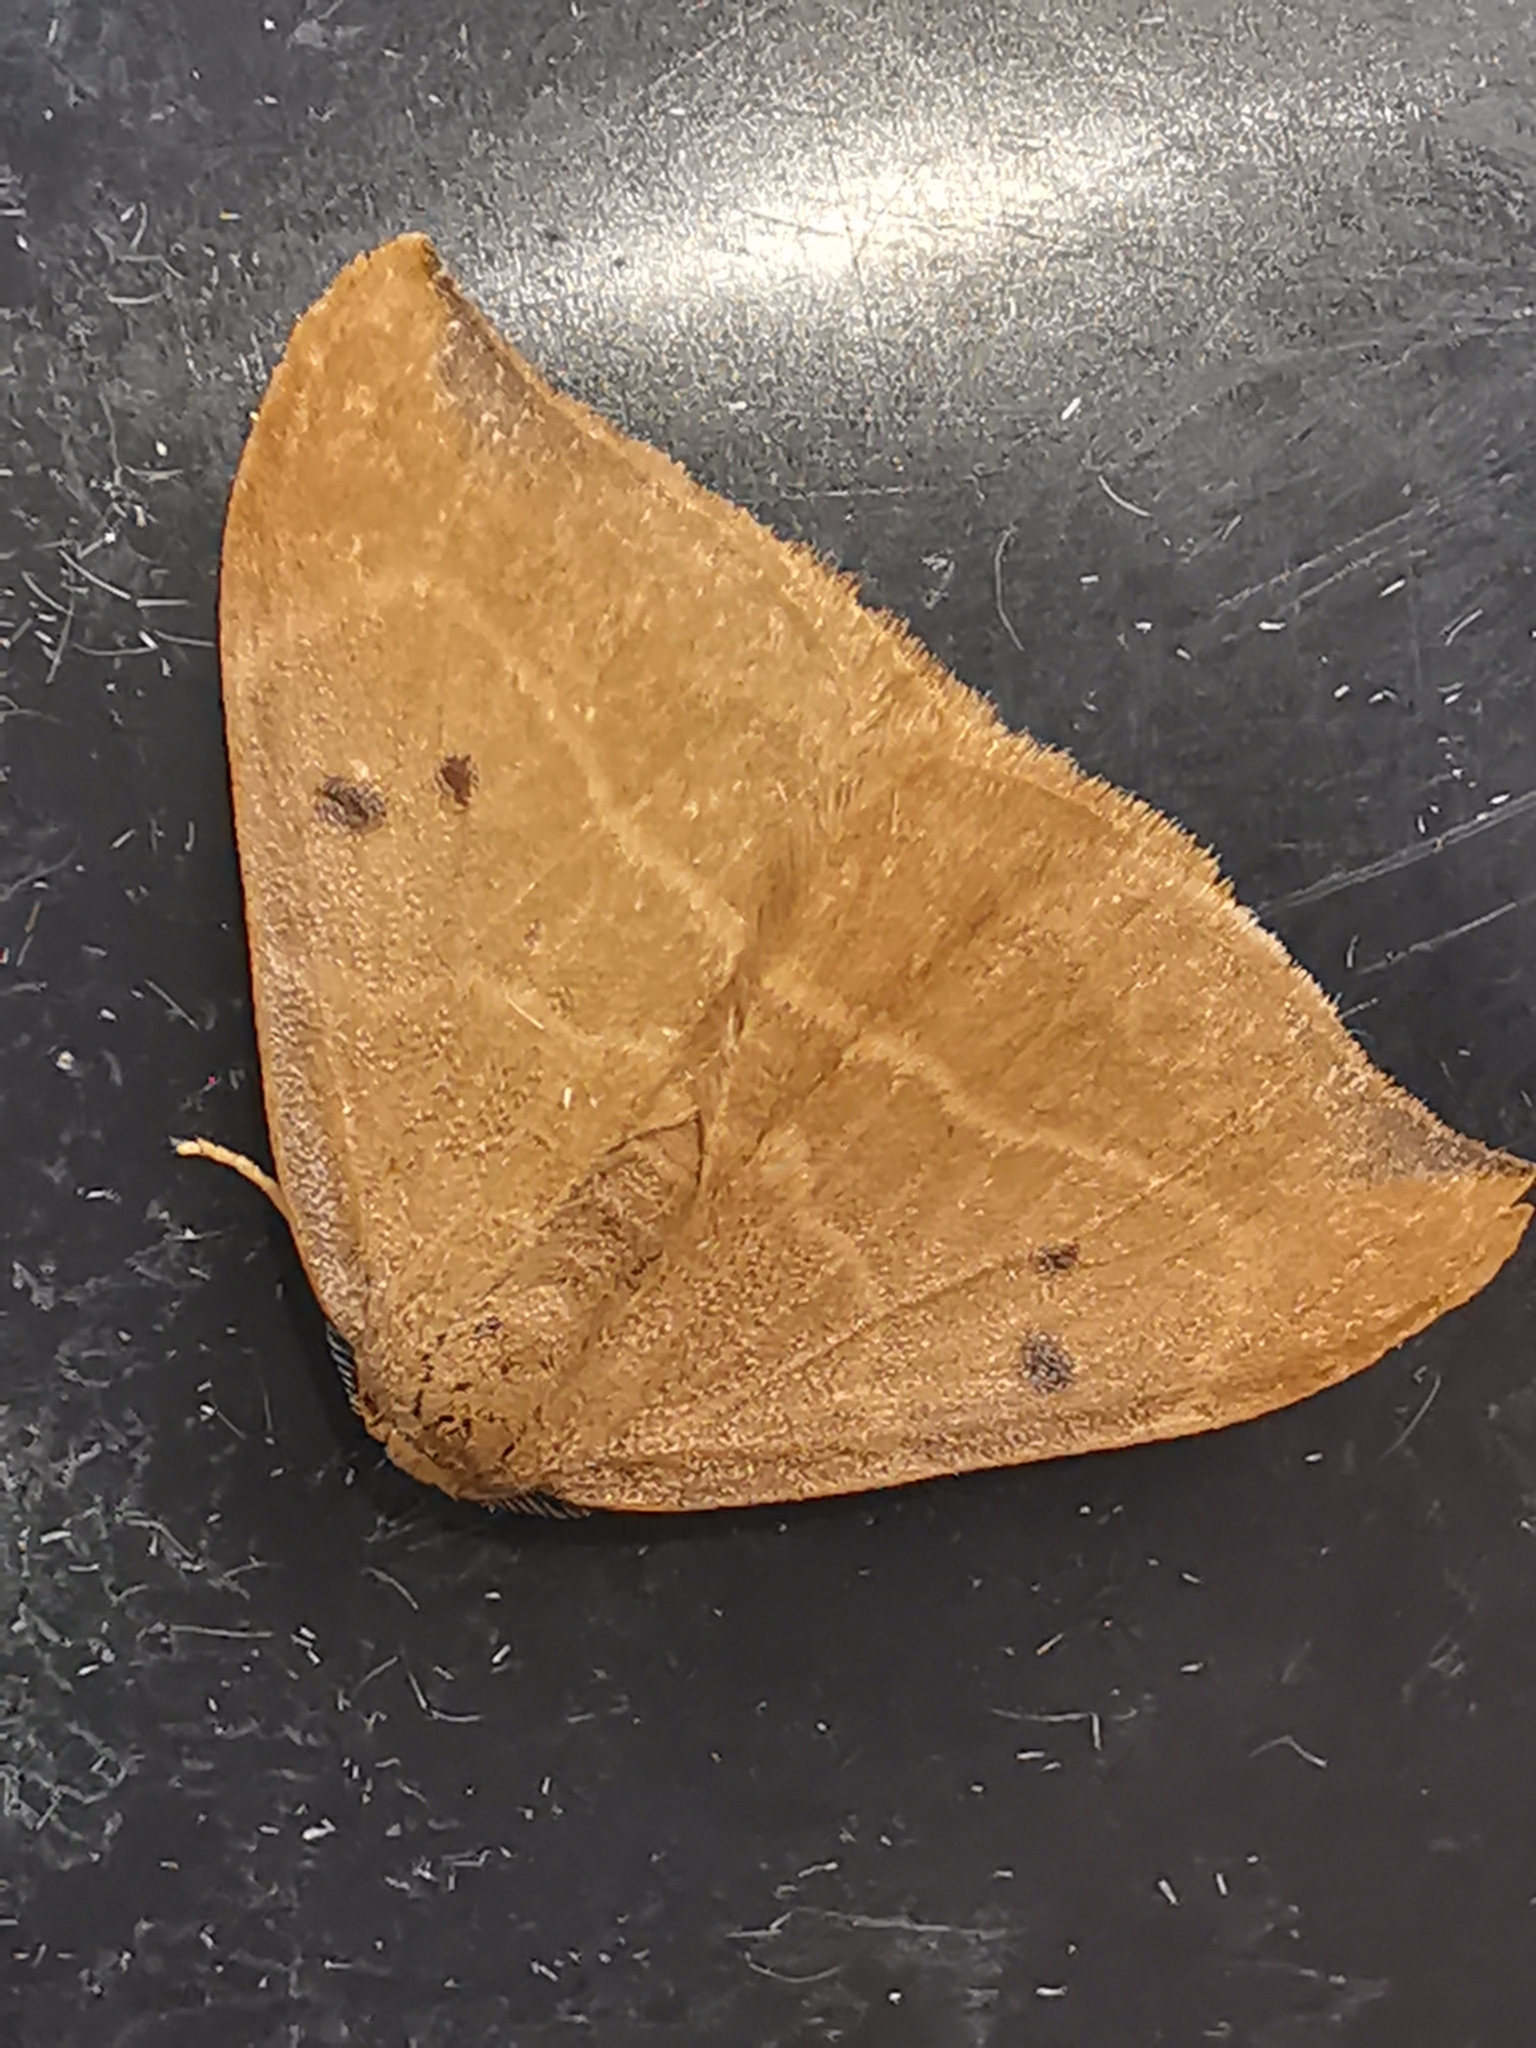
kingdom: Animalia
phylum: Arthropoda
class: Insecta
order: Lepidoptera
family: Drepanidae
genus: Watsonalla
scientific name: Watsonalla binaria
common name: Oak hook-tip
